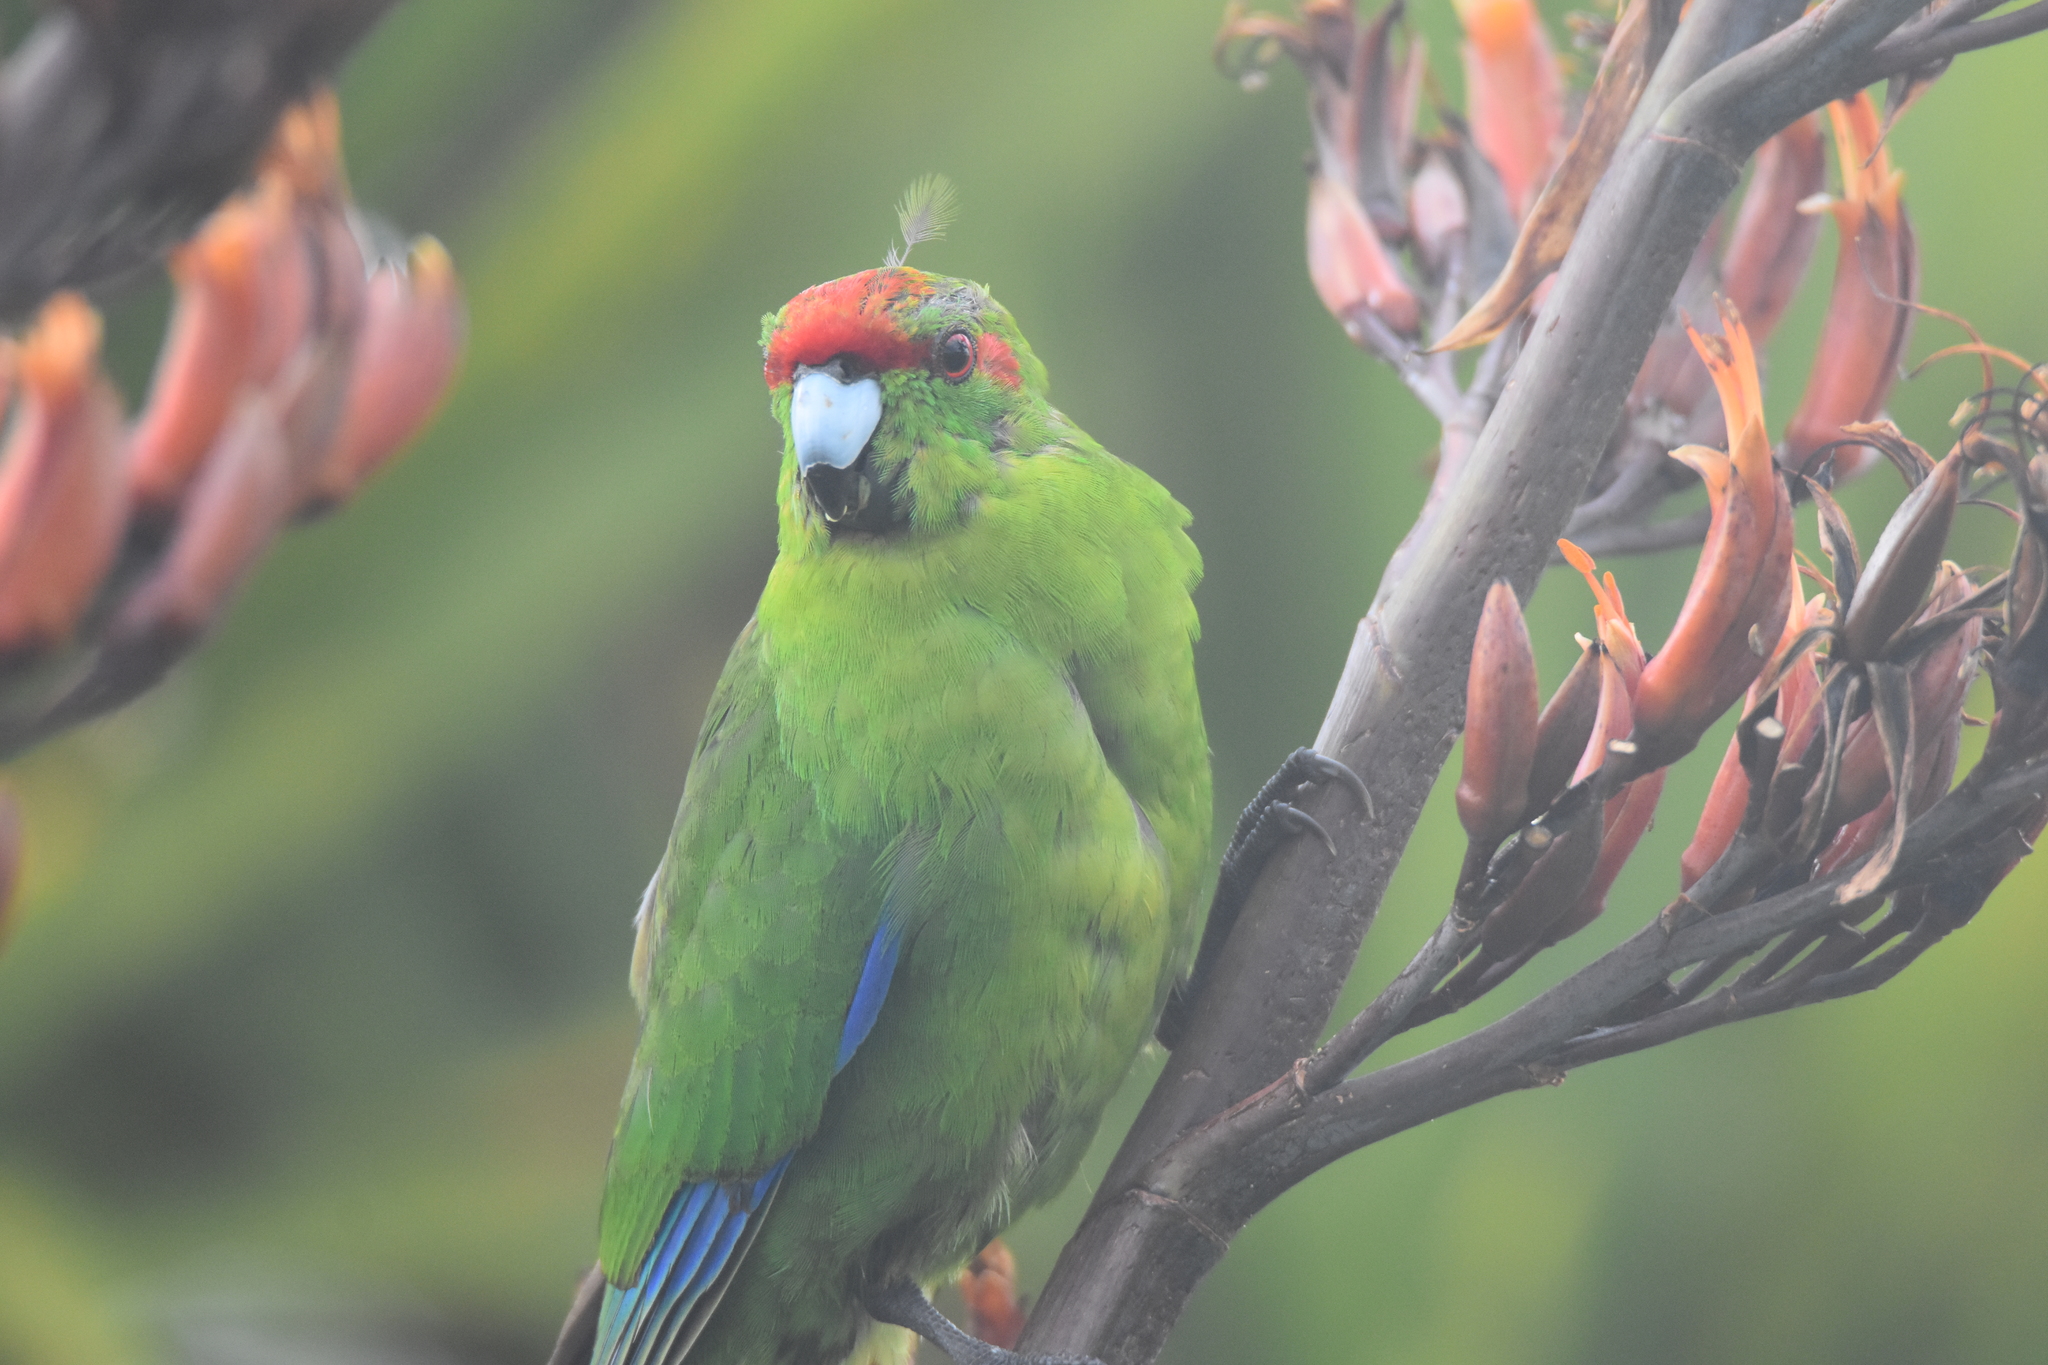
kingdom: Animalia
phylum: Chordata
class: Aves
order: Psittaciformes
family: Psittacidae
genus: Cyanoramphus
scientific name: Cyanoramphus novaezelandiae
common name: Red-fronted parakeet
